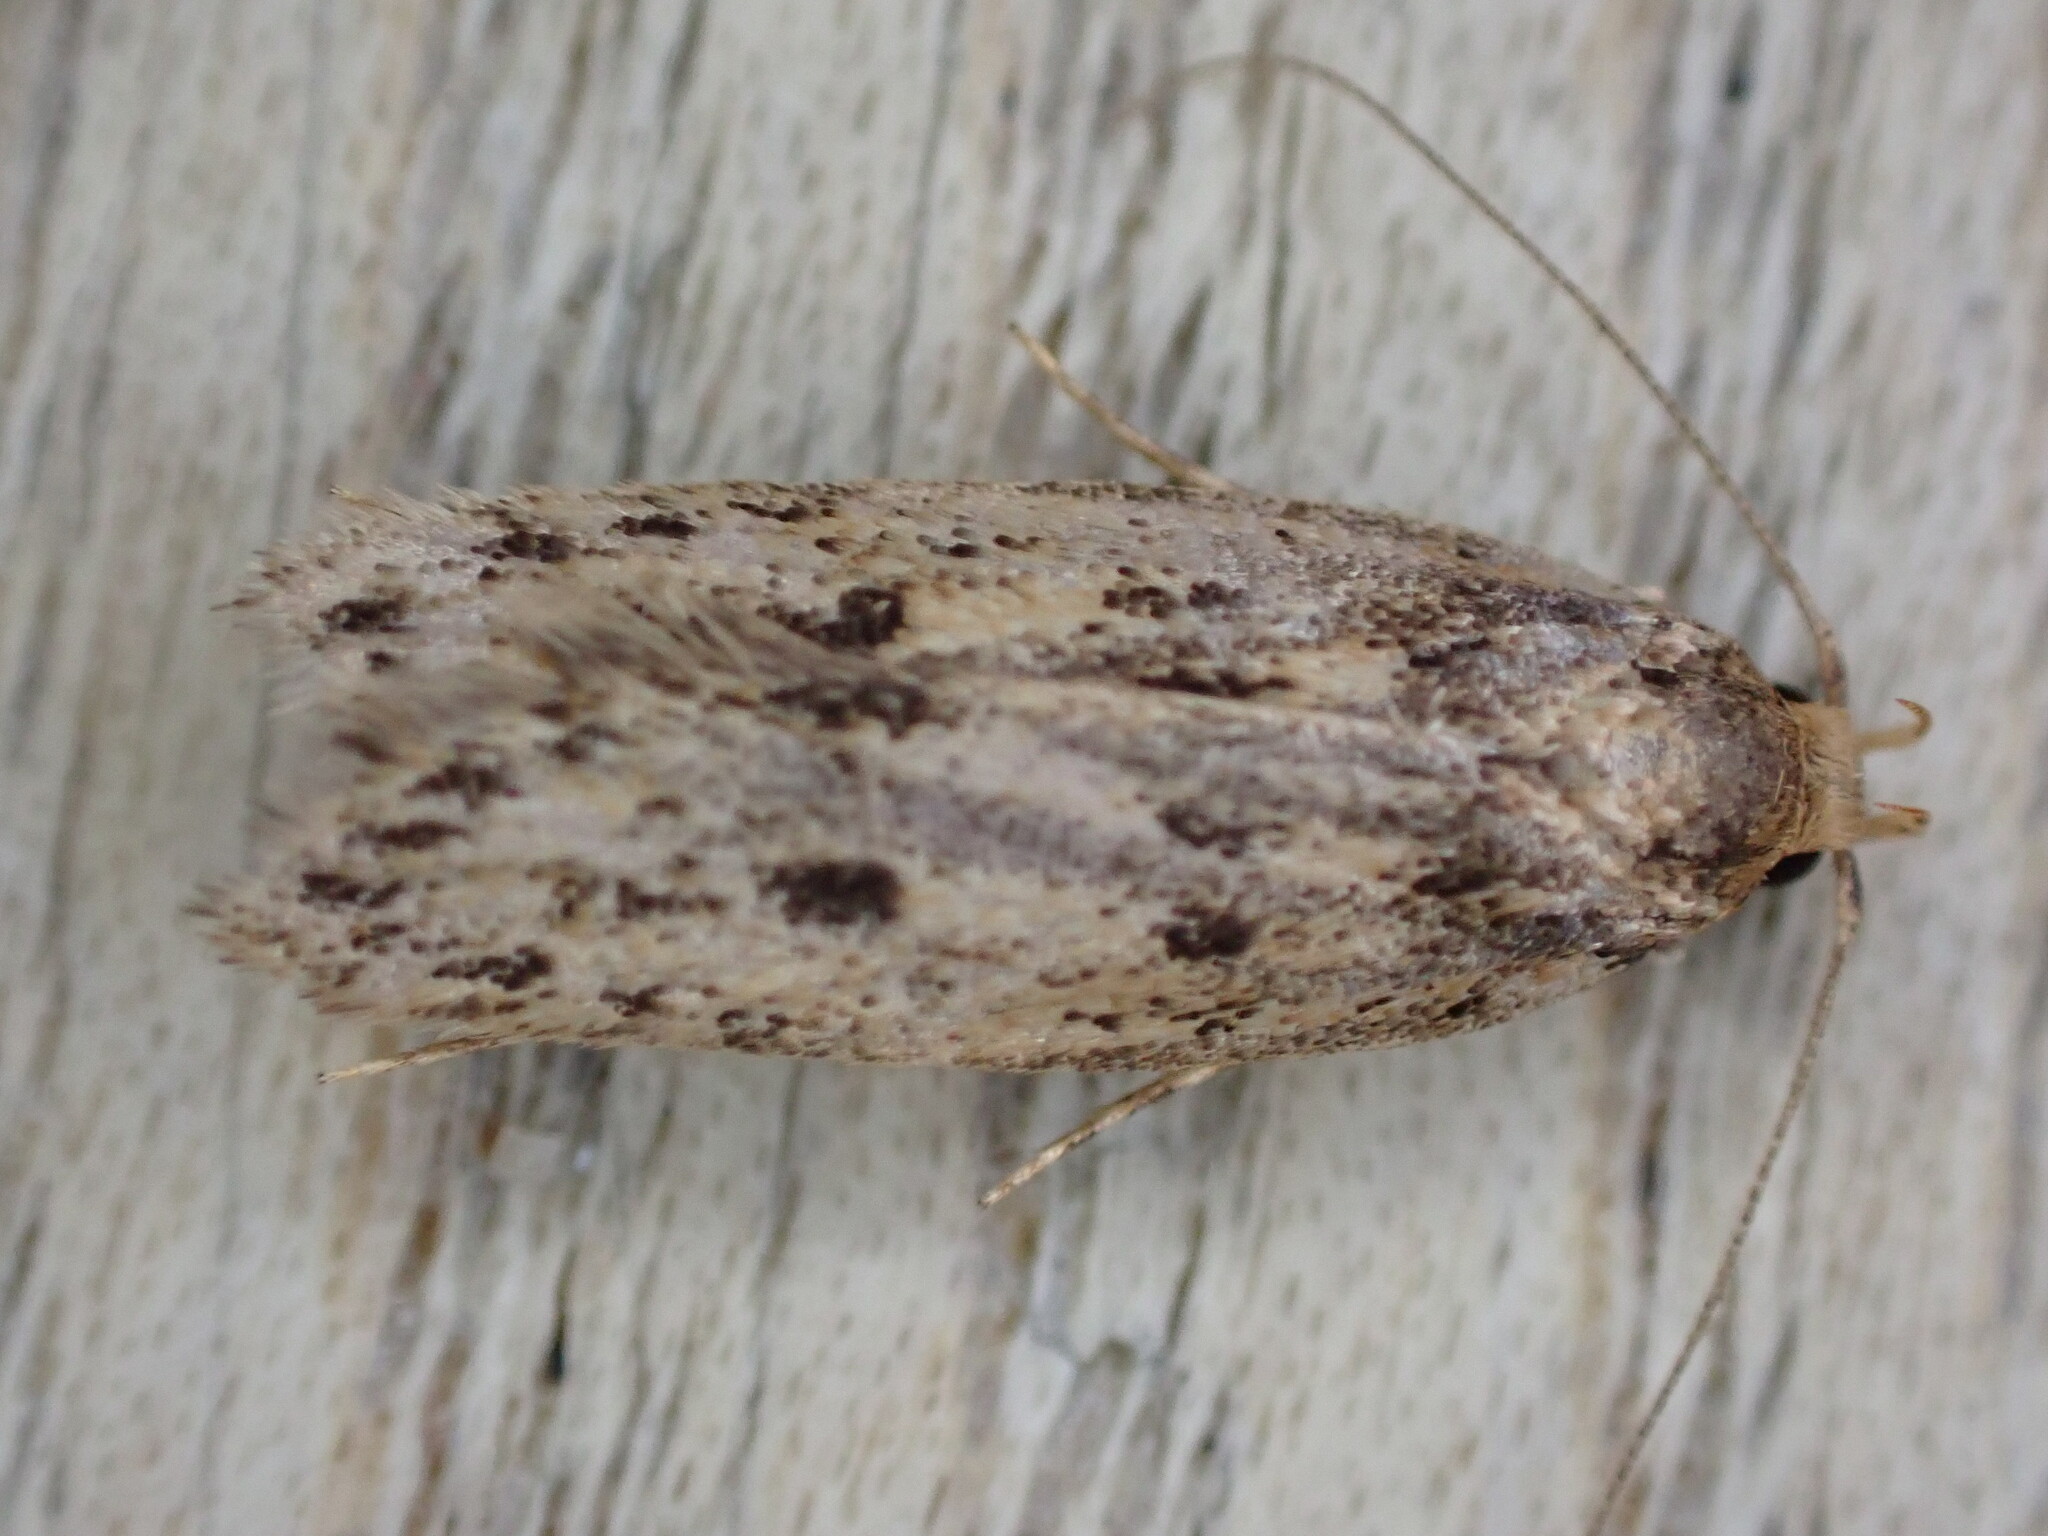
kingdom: Animalia
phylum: Arthropoda
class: Insecta
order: Lepidoptera
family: Oecophoridae
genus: Hofmannophila
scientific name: Hofmannophila pseudospretella
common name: Brown house moth
